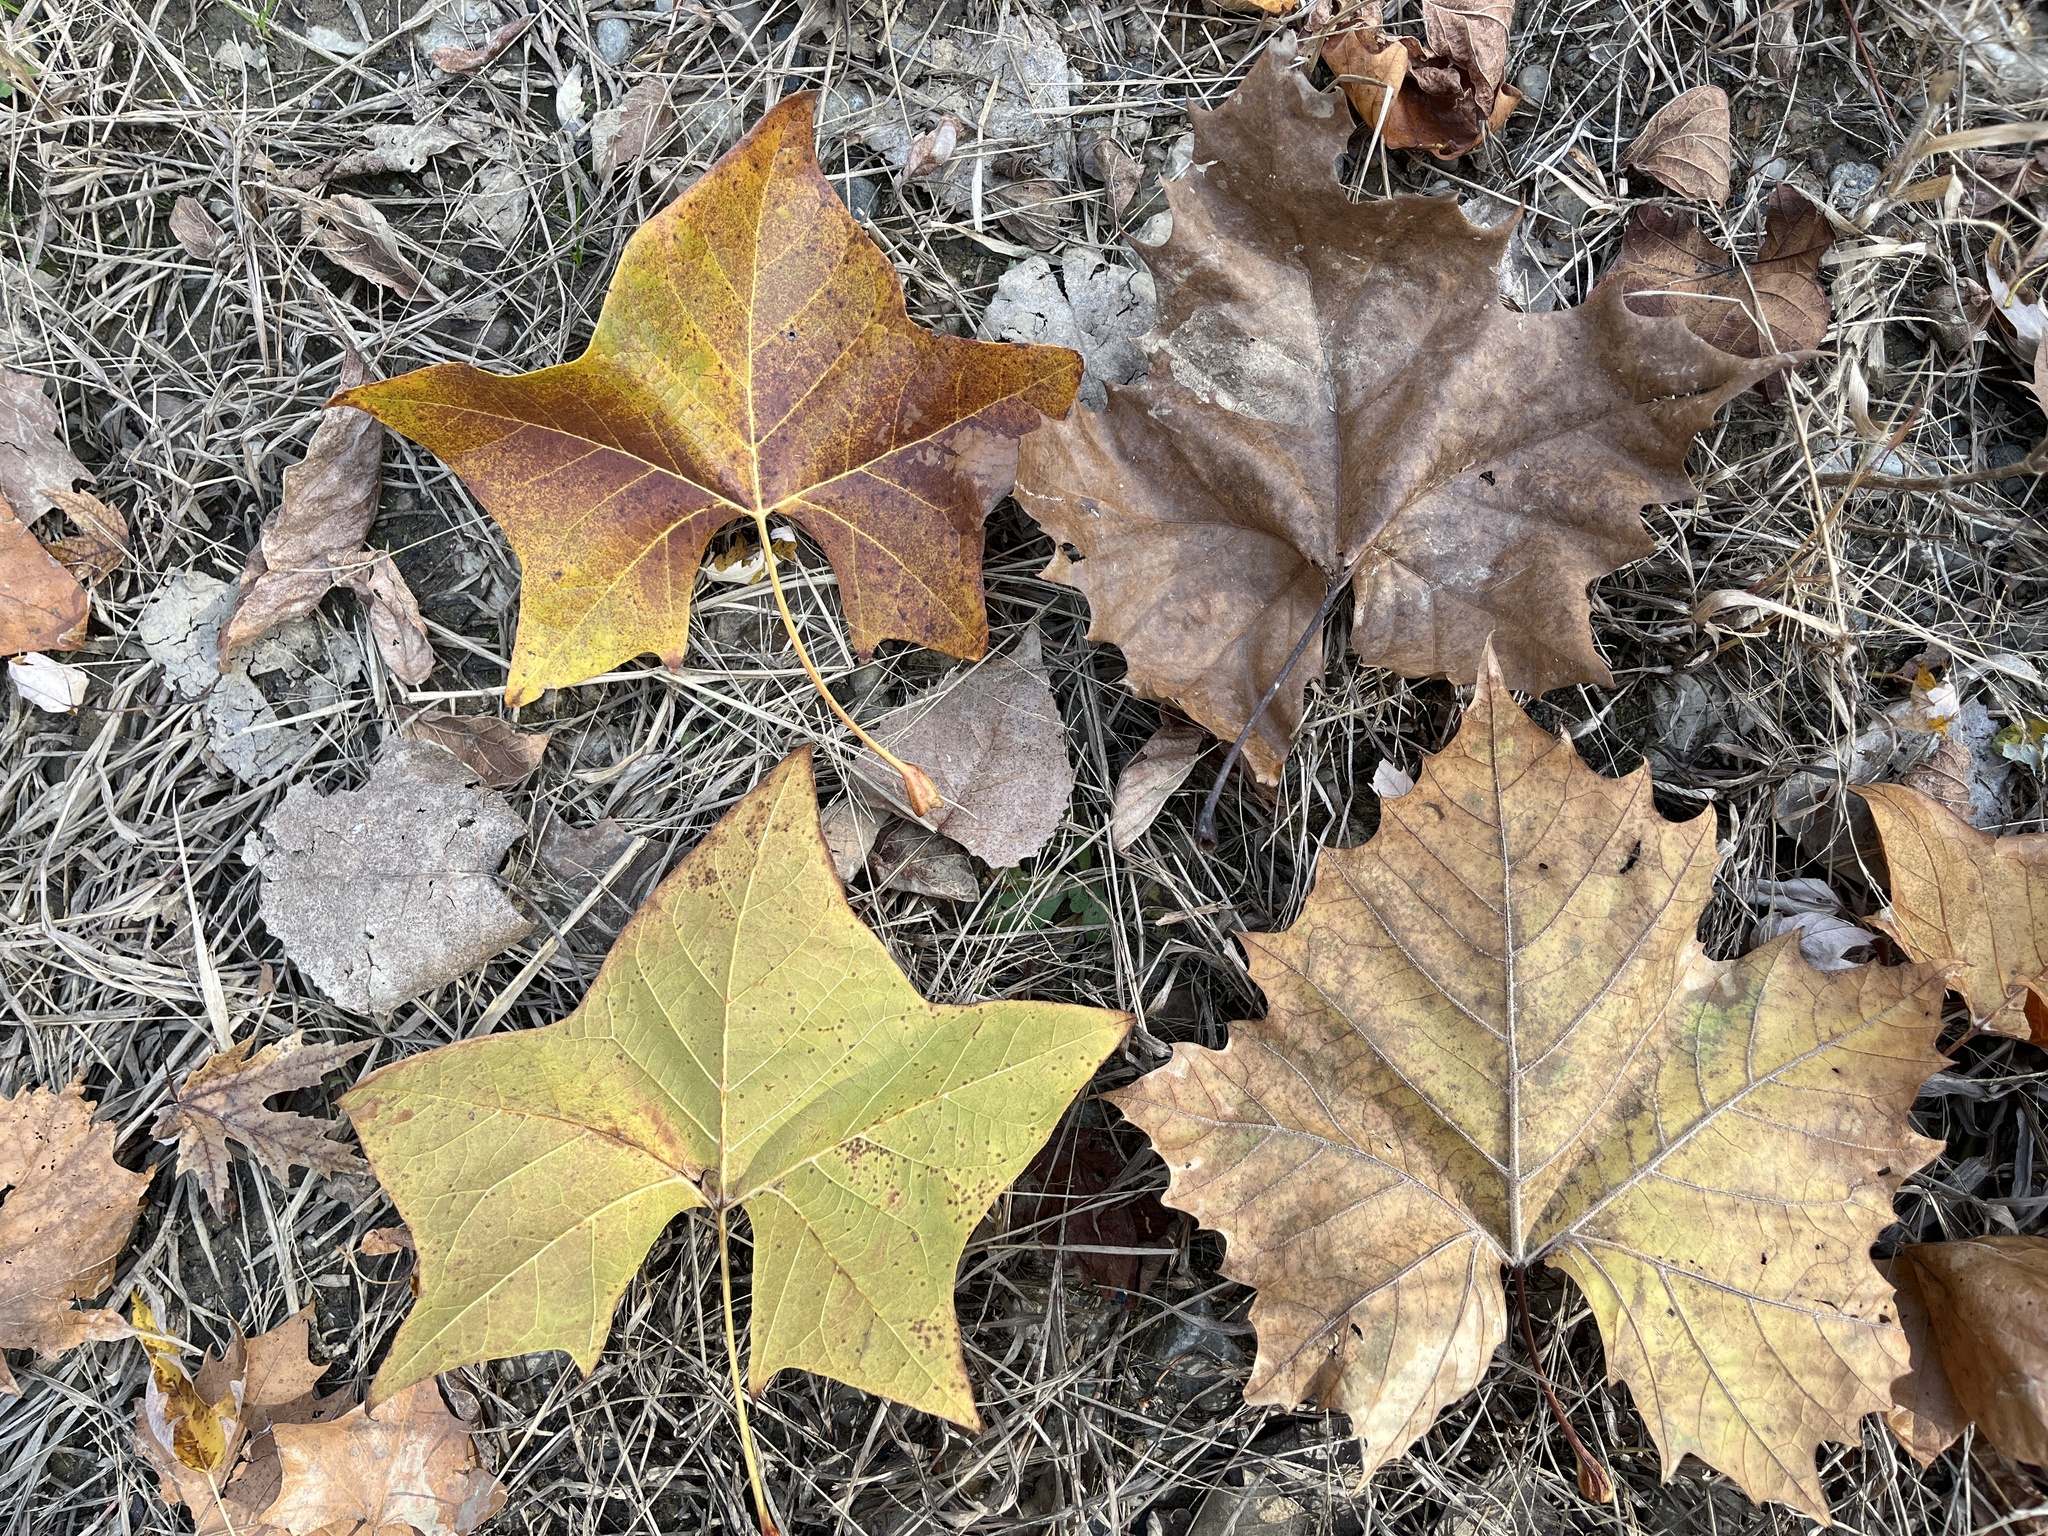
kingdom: Plantae
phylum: Tracheophyta
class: Magnoliopsida
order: Proteales
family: Platanaceae
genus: Platanus
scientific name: Platanus occidentalis
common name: American sycamore
